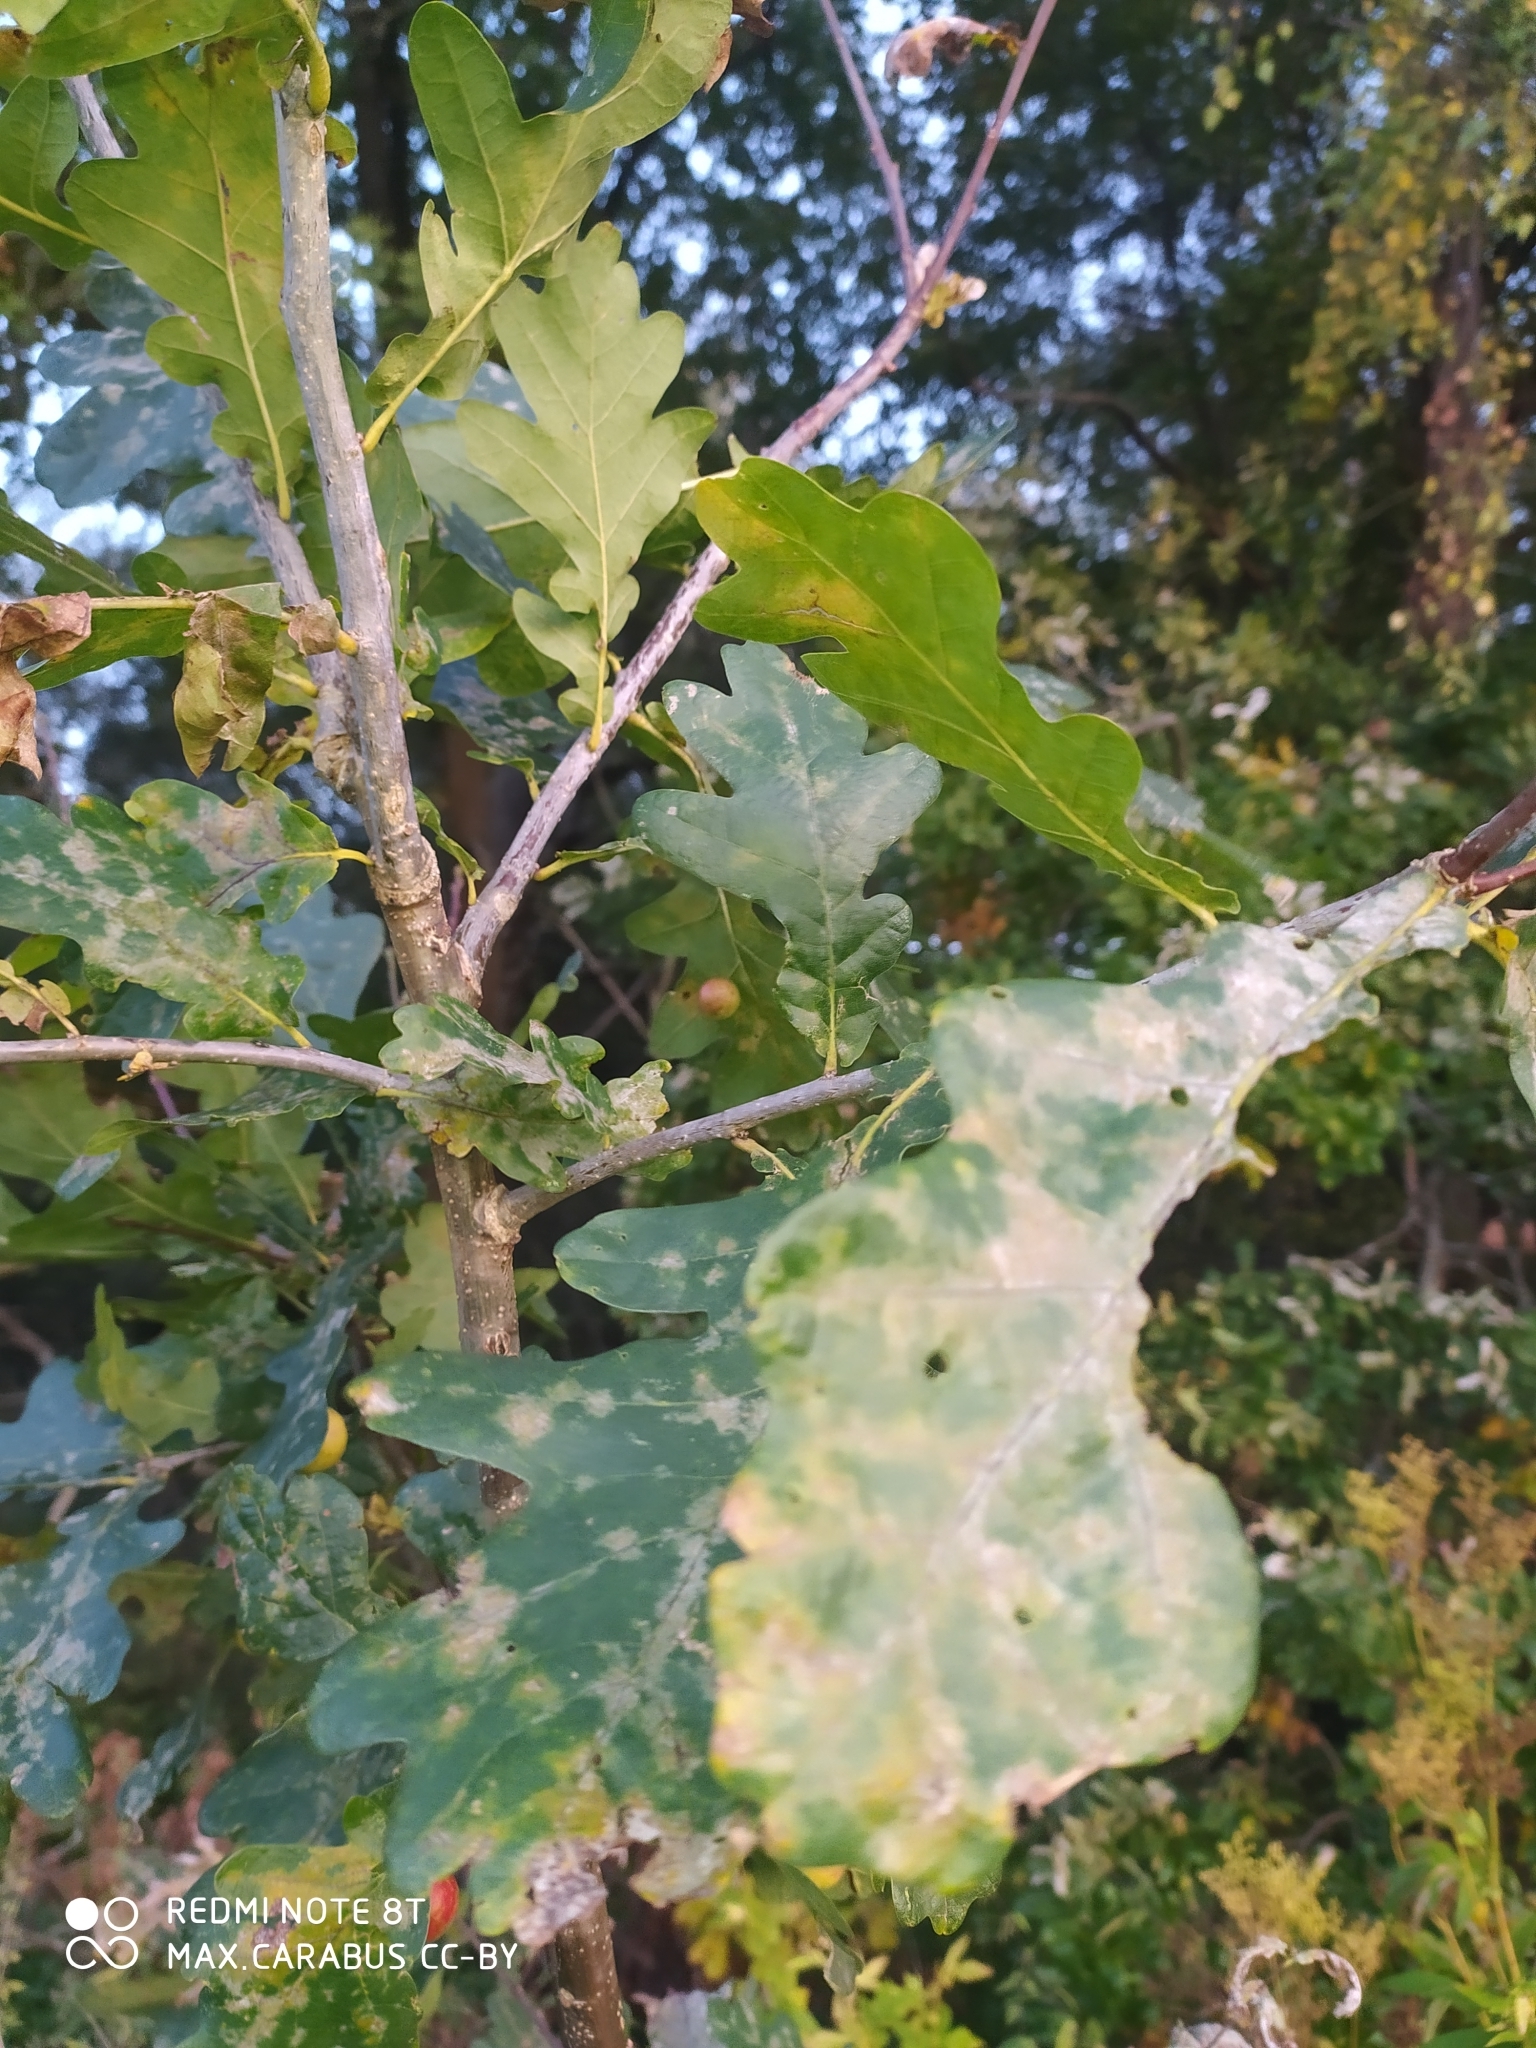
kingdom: Plantae
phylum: Tracheophyta
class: Magnoliopsida
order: Fagales
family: Fagaceae
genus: Quercus
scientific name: Quercus robur
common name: Pedunculate oak
